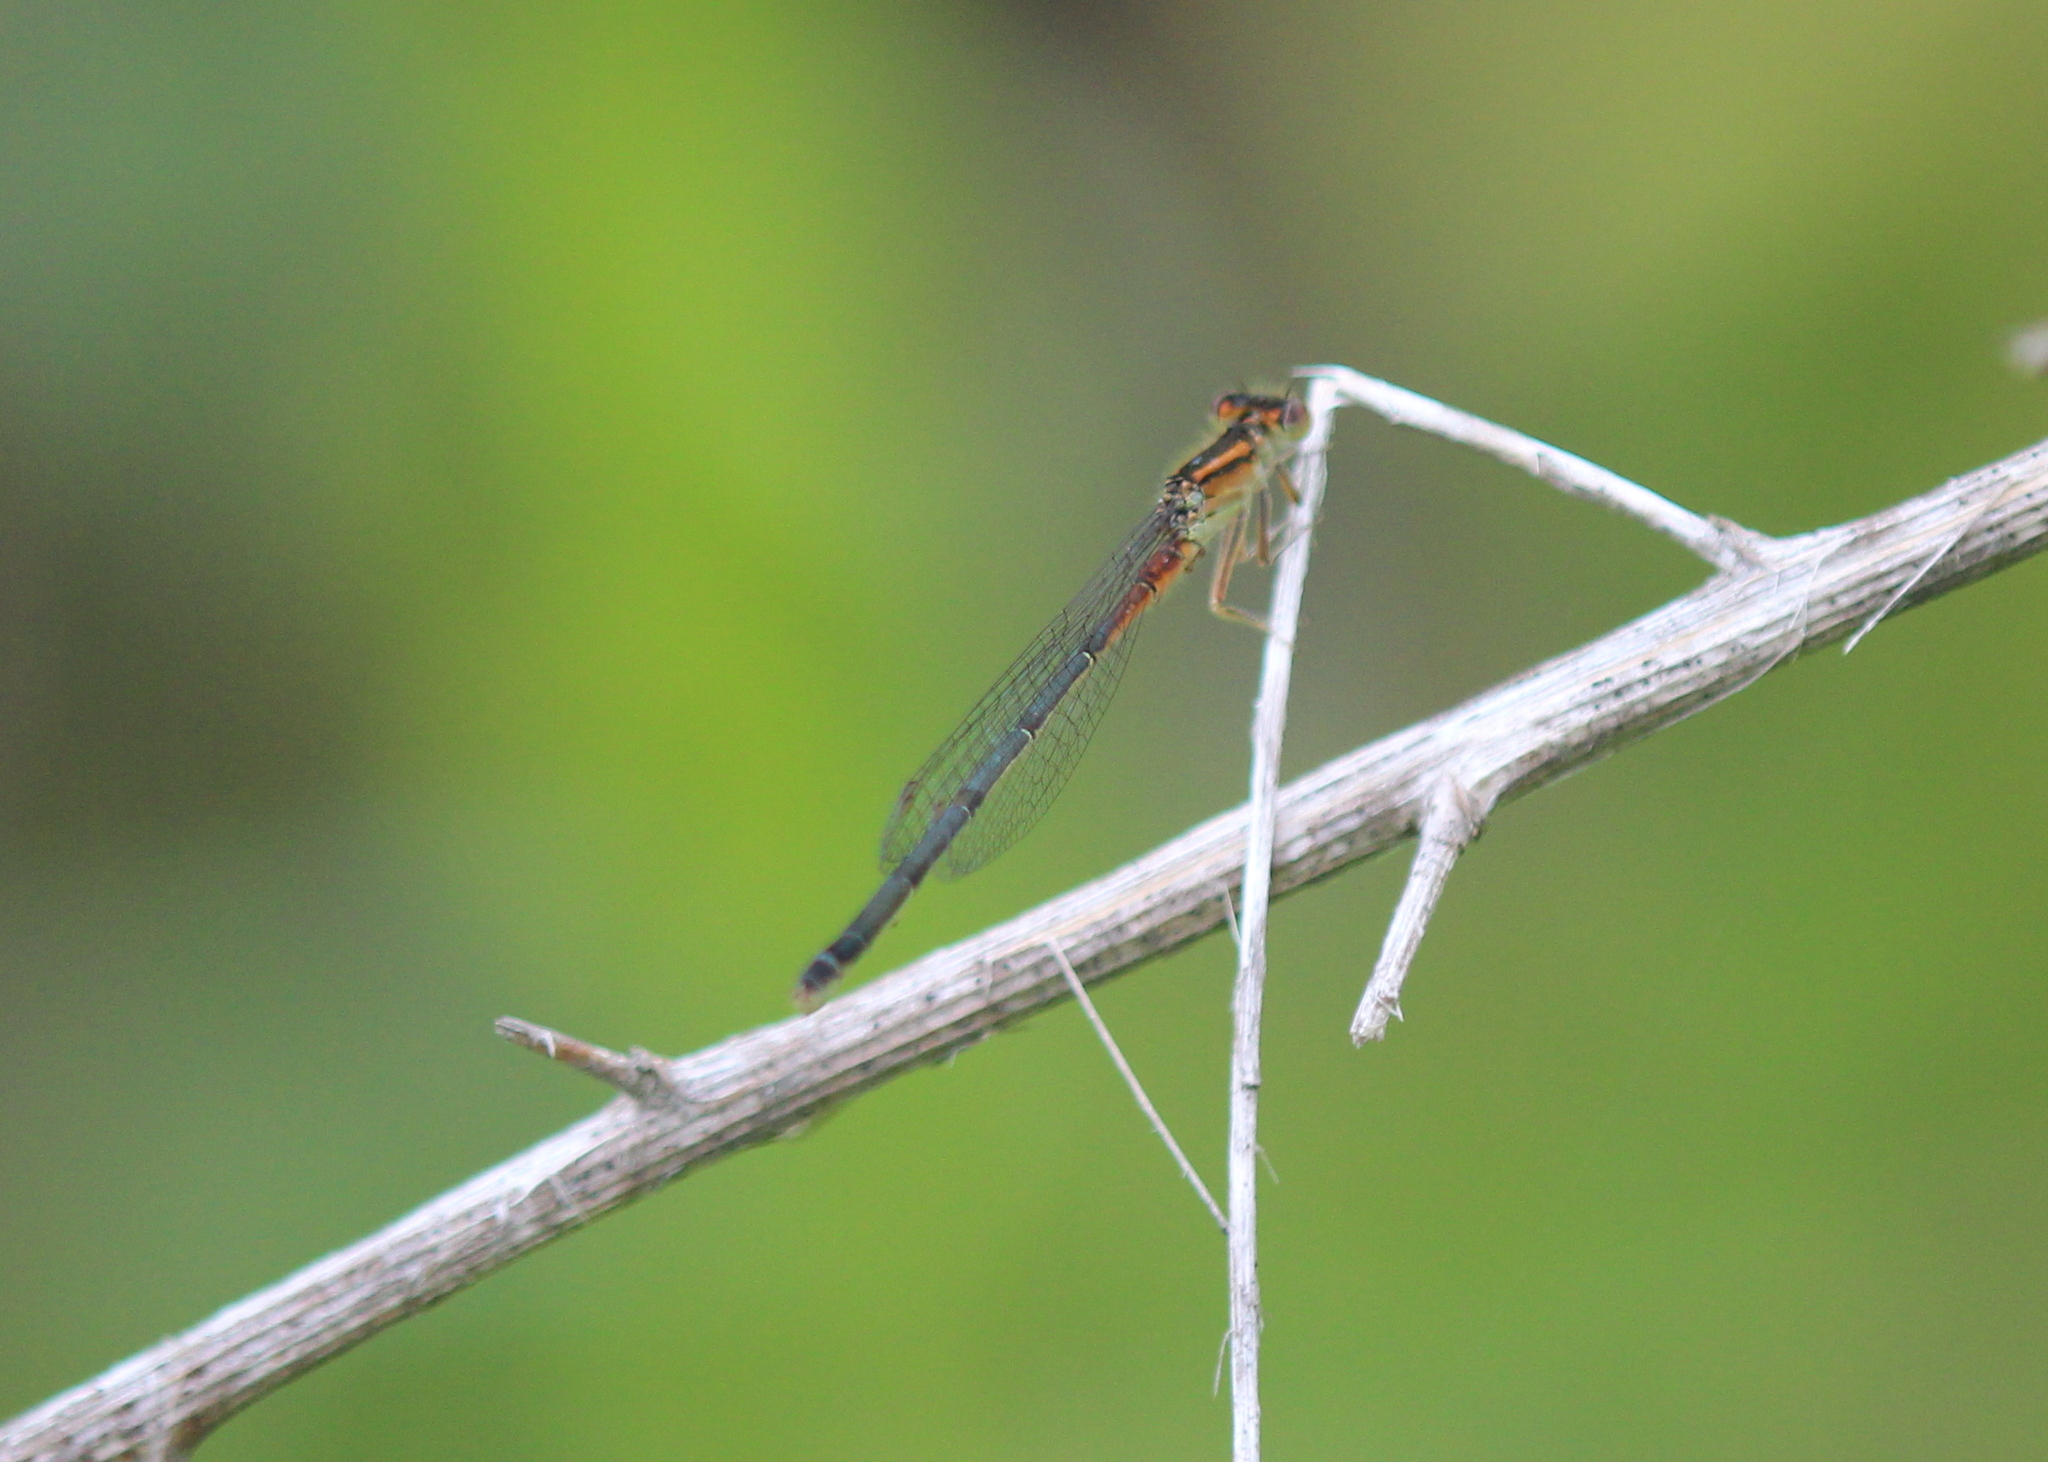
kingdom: Animalia
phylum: Arthropoda
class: Insecta
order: Odonata
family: Coenagrionidae
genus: Ischnura
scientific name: Ischnura verticalis
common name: Eastern forktail
